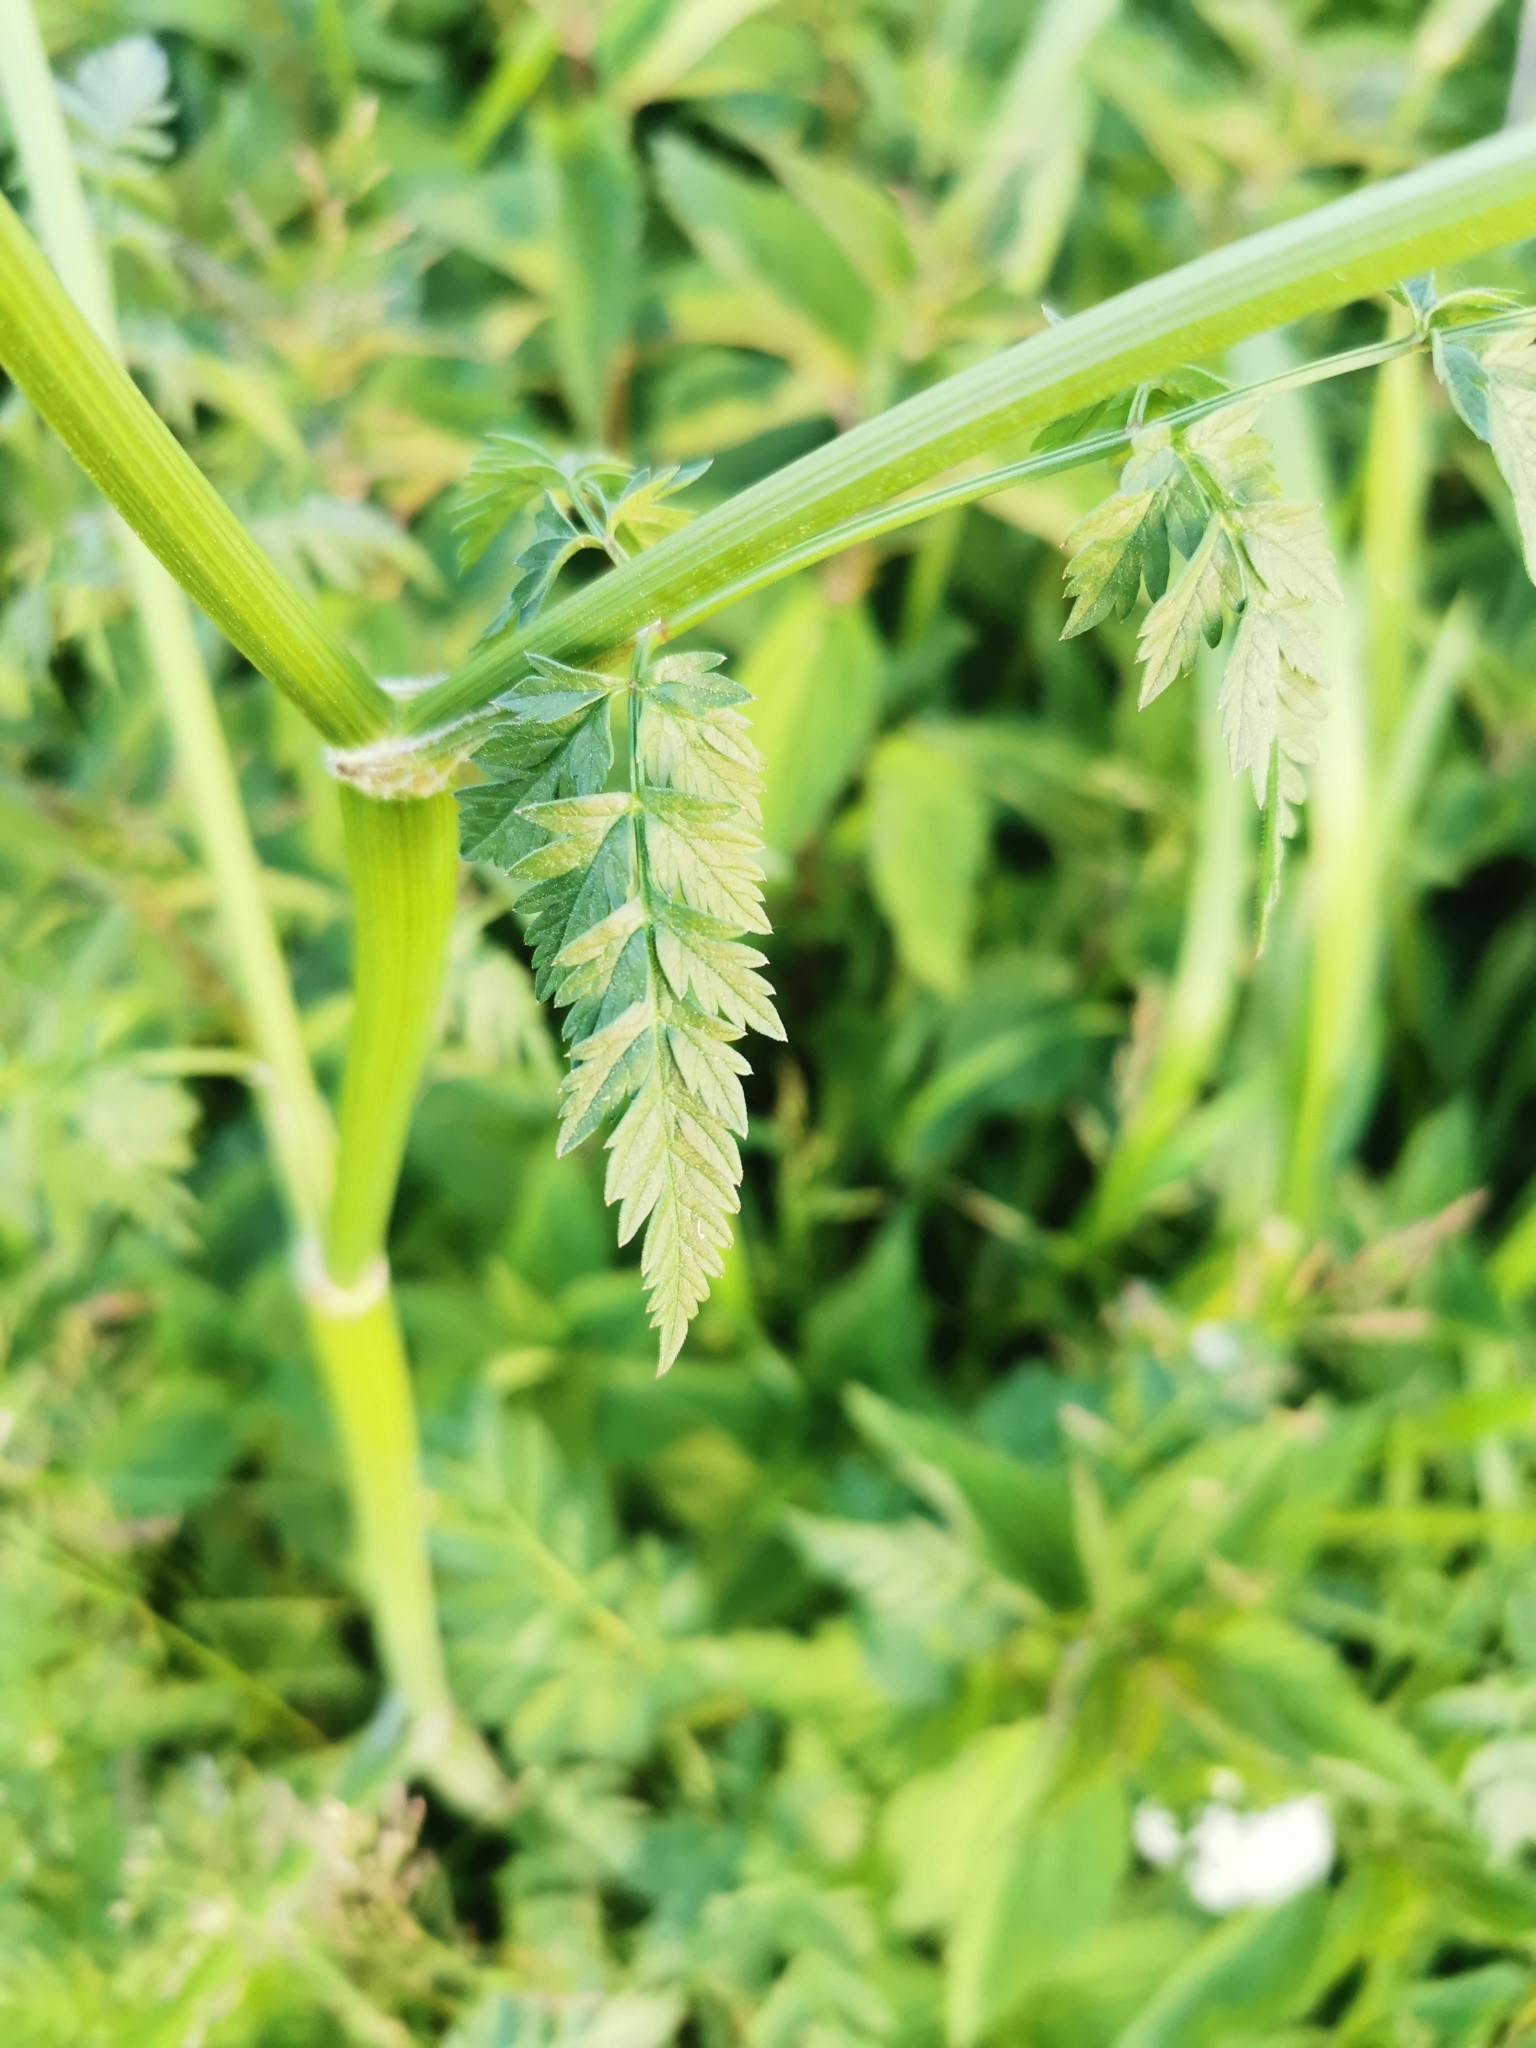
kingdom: Plantae
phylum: Tracheophyta
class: Magnoliopsida
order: Apiales
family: Apiaceae
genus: Anthriscus
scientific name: Anthriscus sylvestris
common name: Cow parsley
